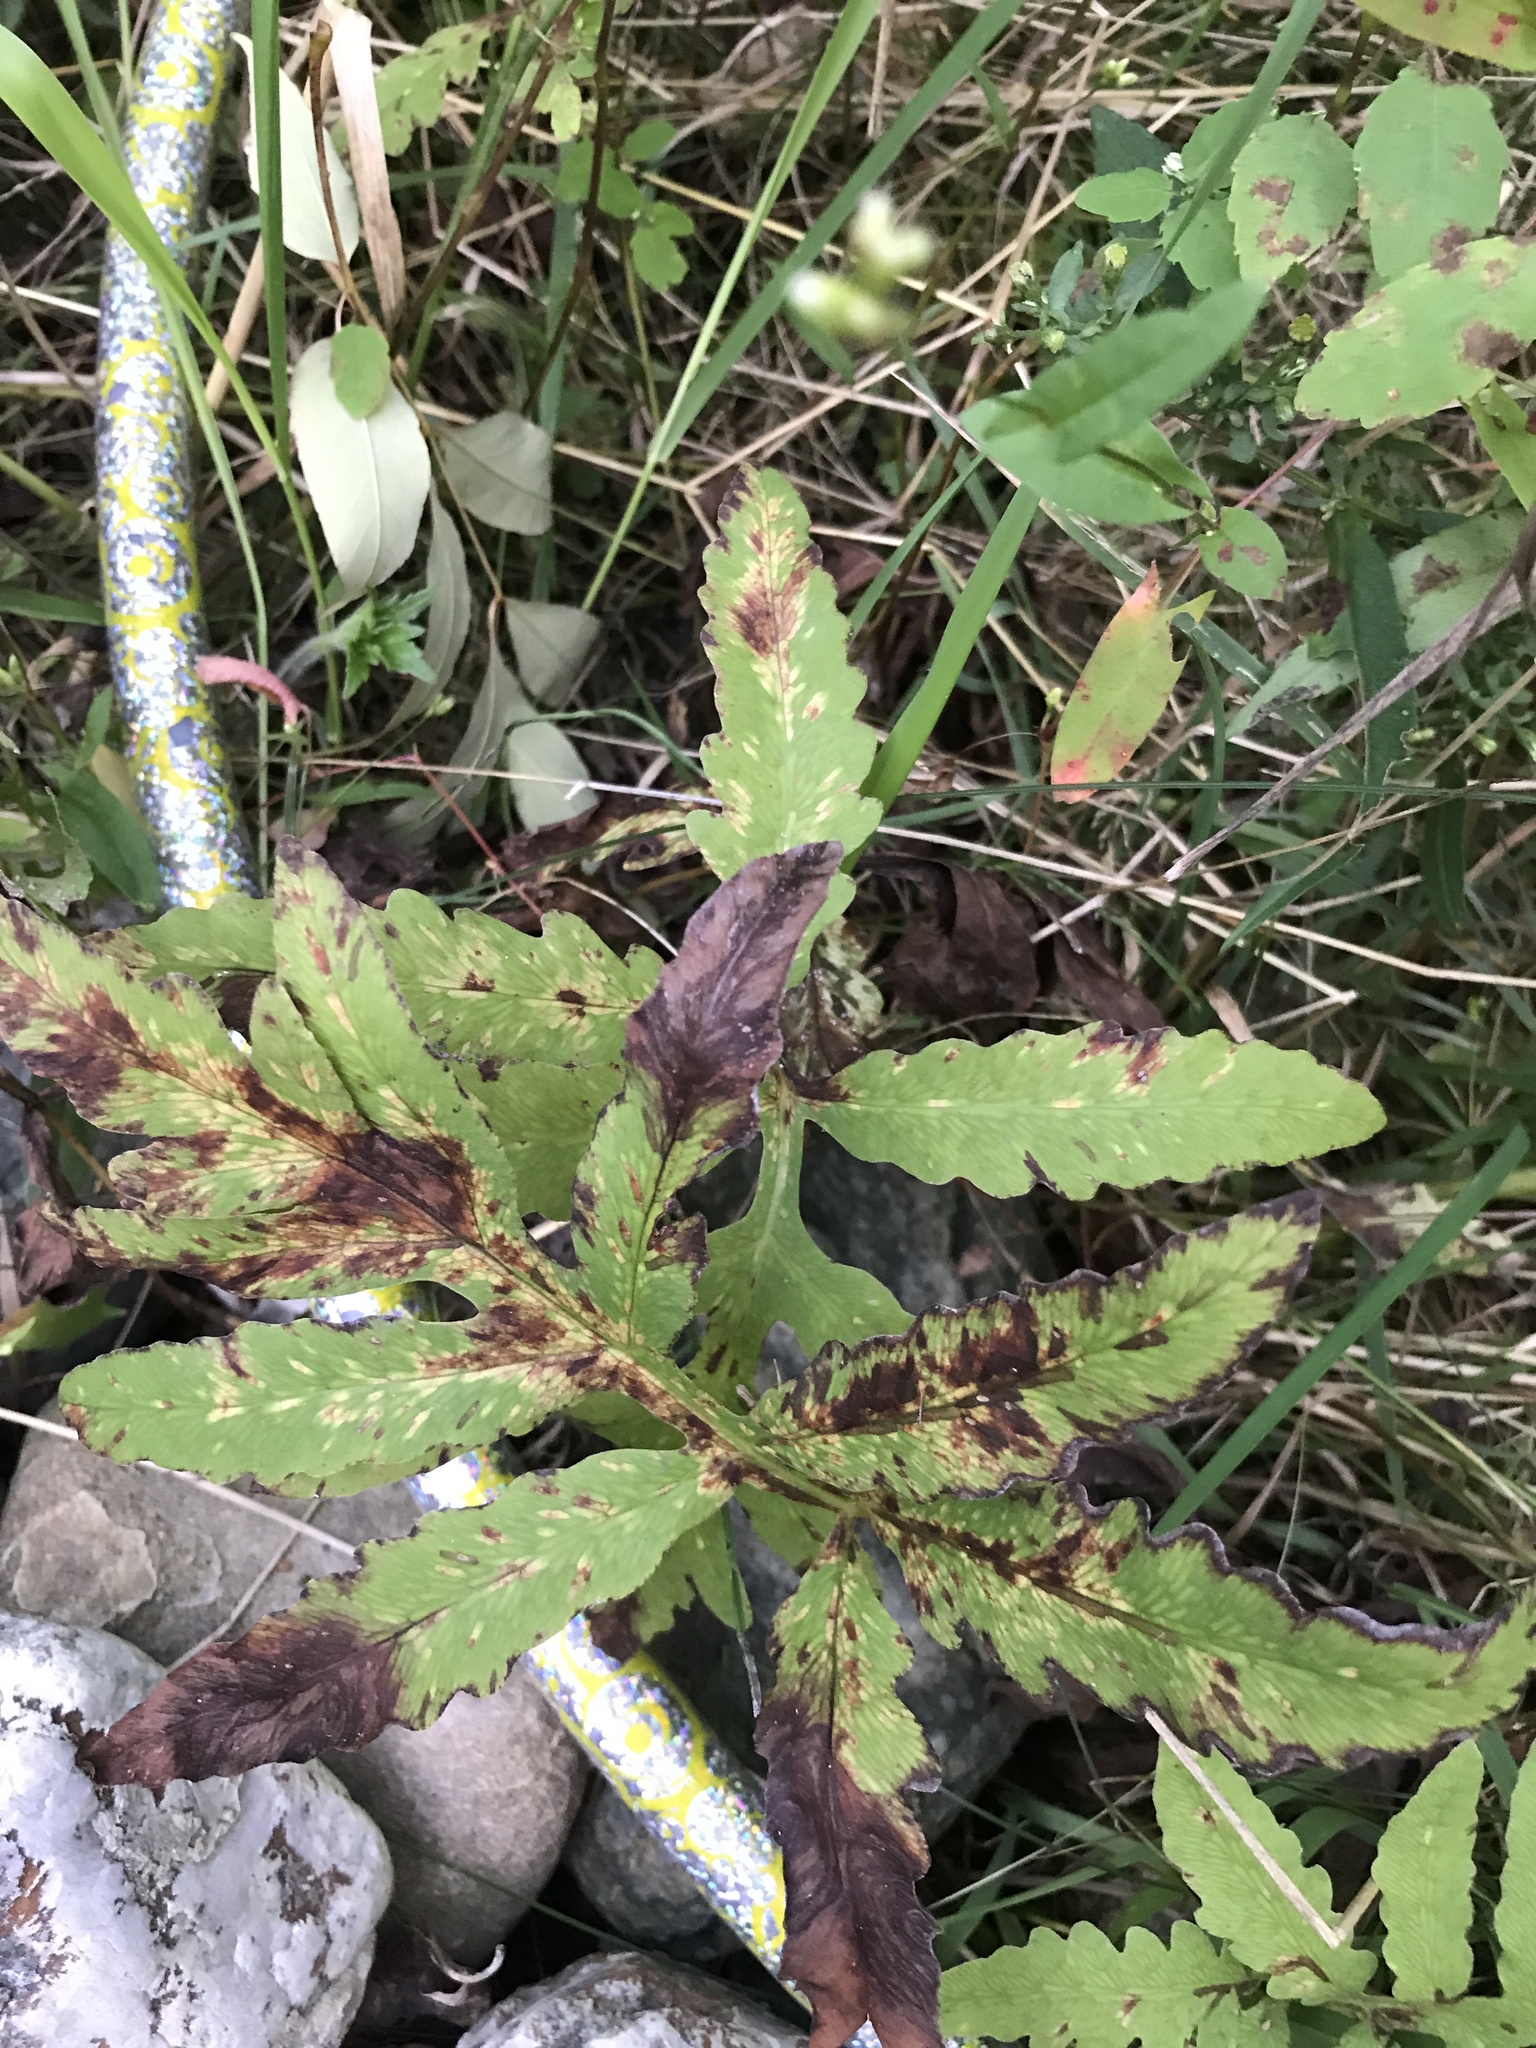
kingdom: Plantae
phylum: Tracheophyta
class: Polypodiopsida
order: Polypodiales
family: Onocleaceae
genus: Onoclea
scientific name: Onoclea sensibilis
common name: Sensitive fern
